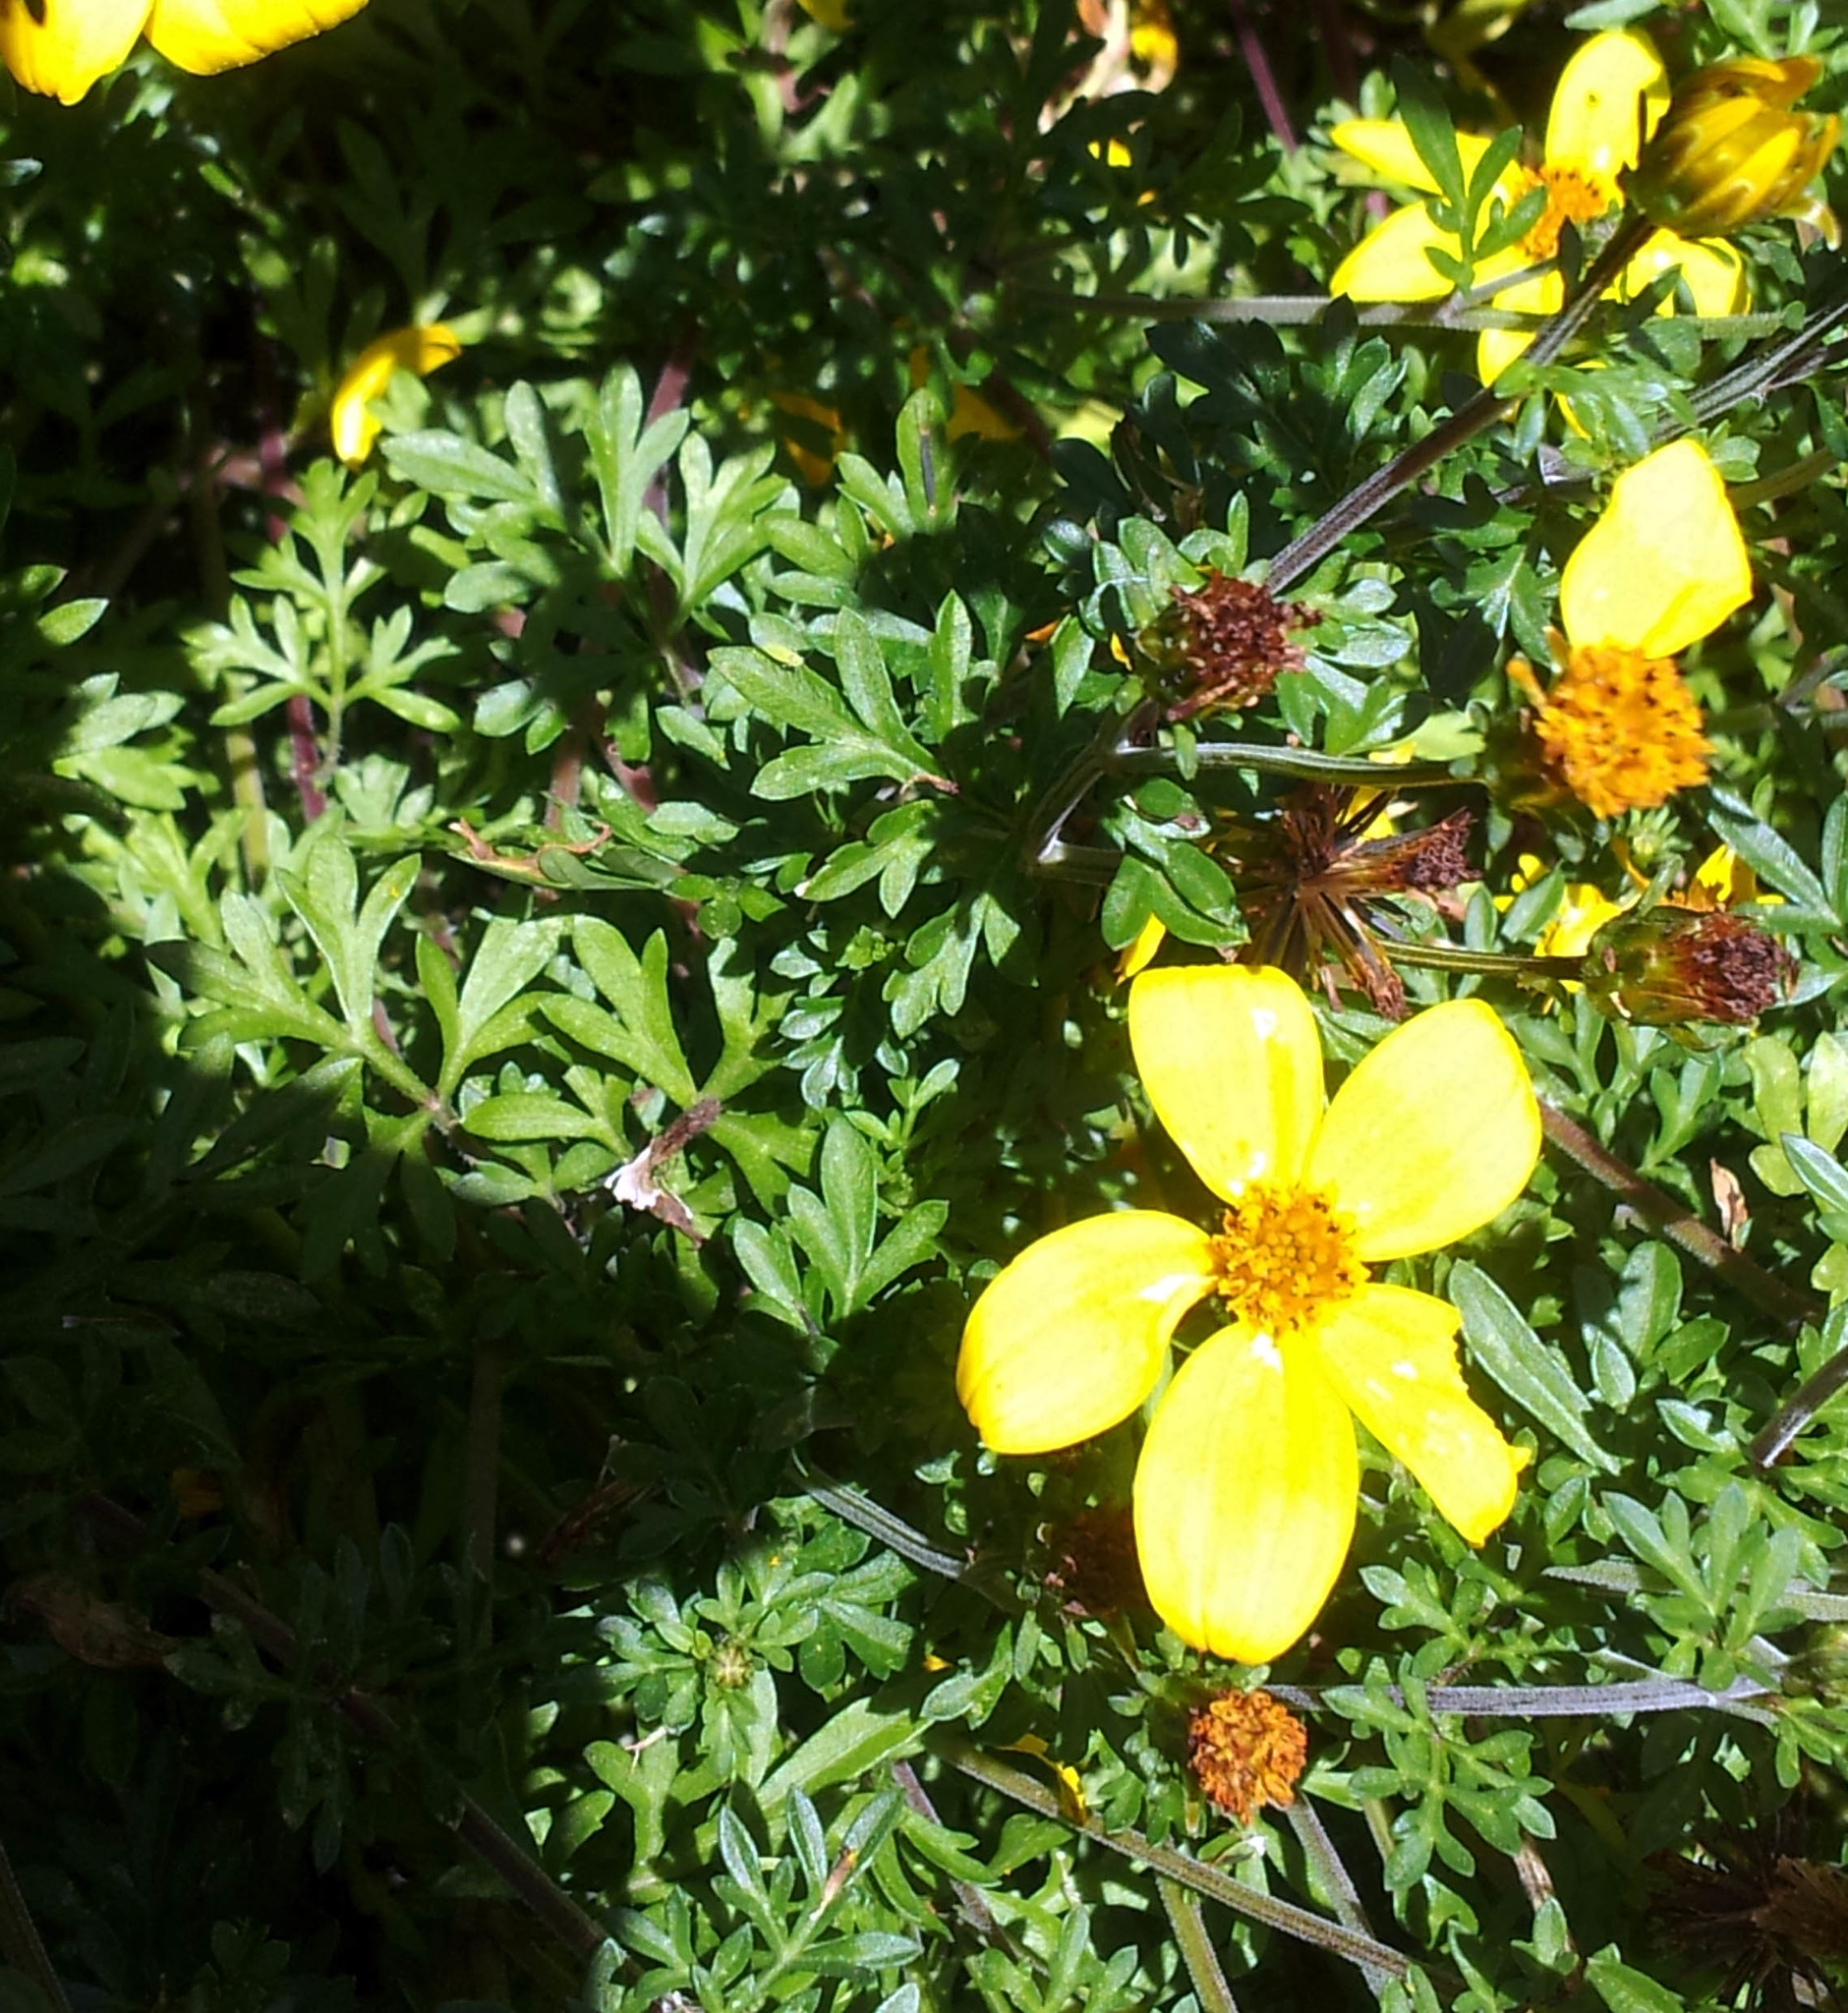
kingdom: Plantae
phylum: Tracheophyta
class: Magnoliopsida
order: Asterales
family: Asteraceae
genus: Bidens
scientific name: Bidens aurea
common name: Arizona beggar-ticks
